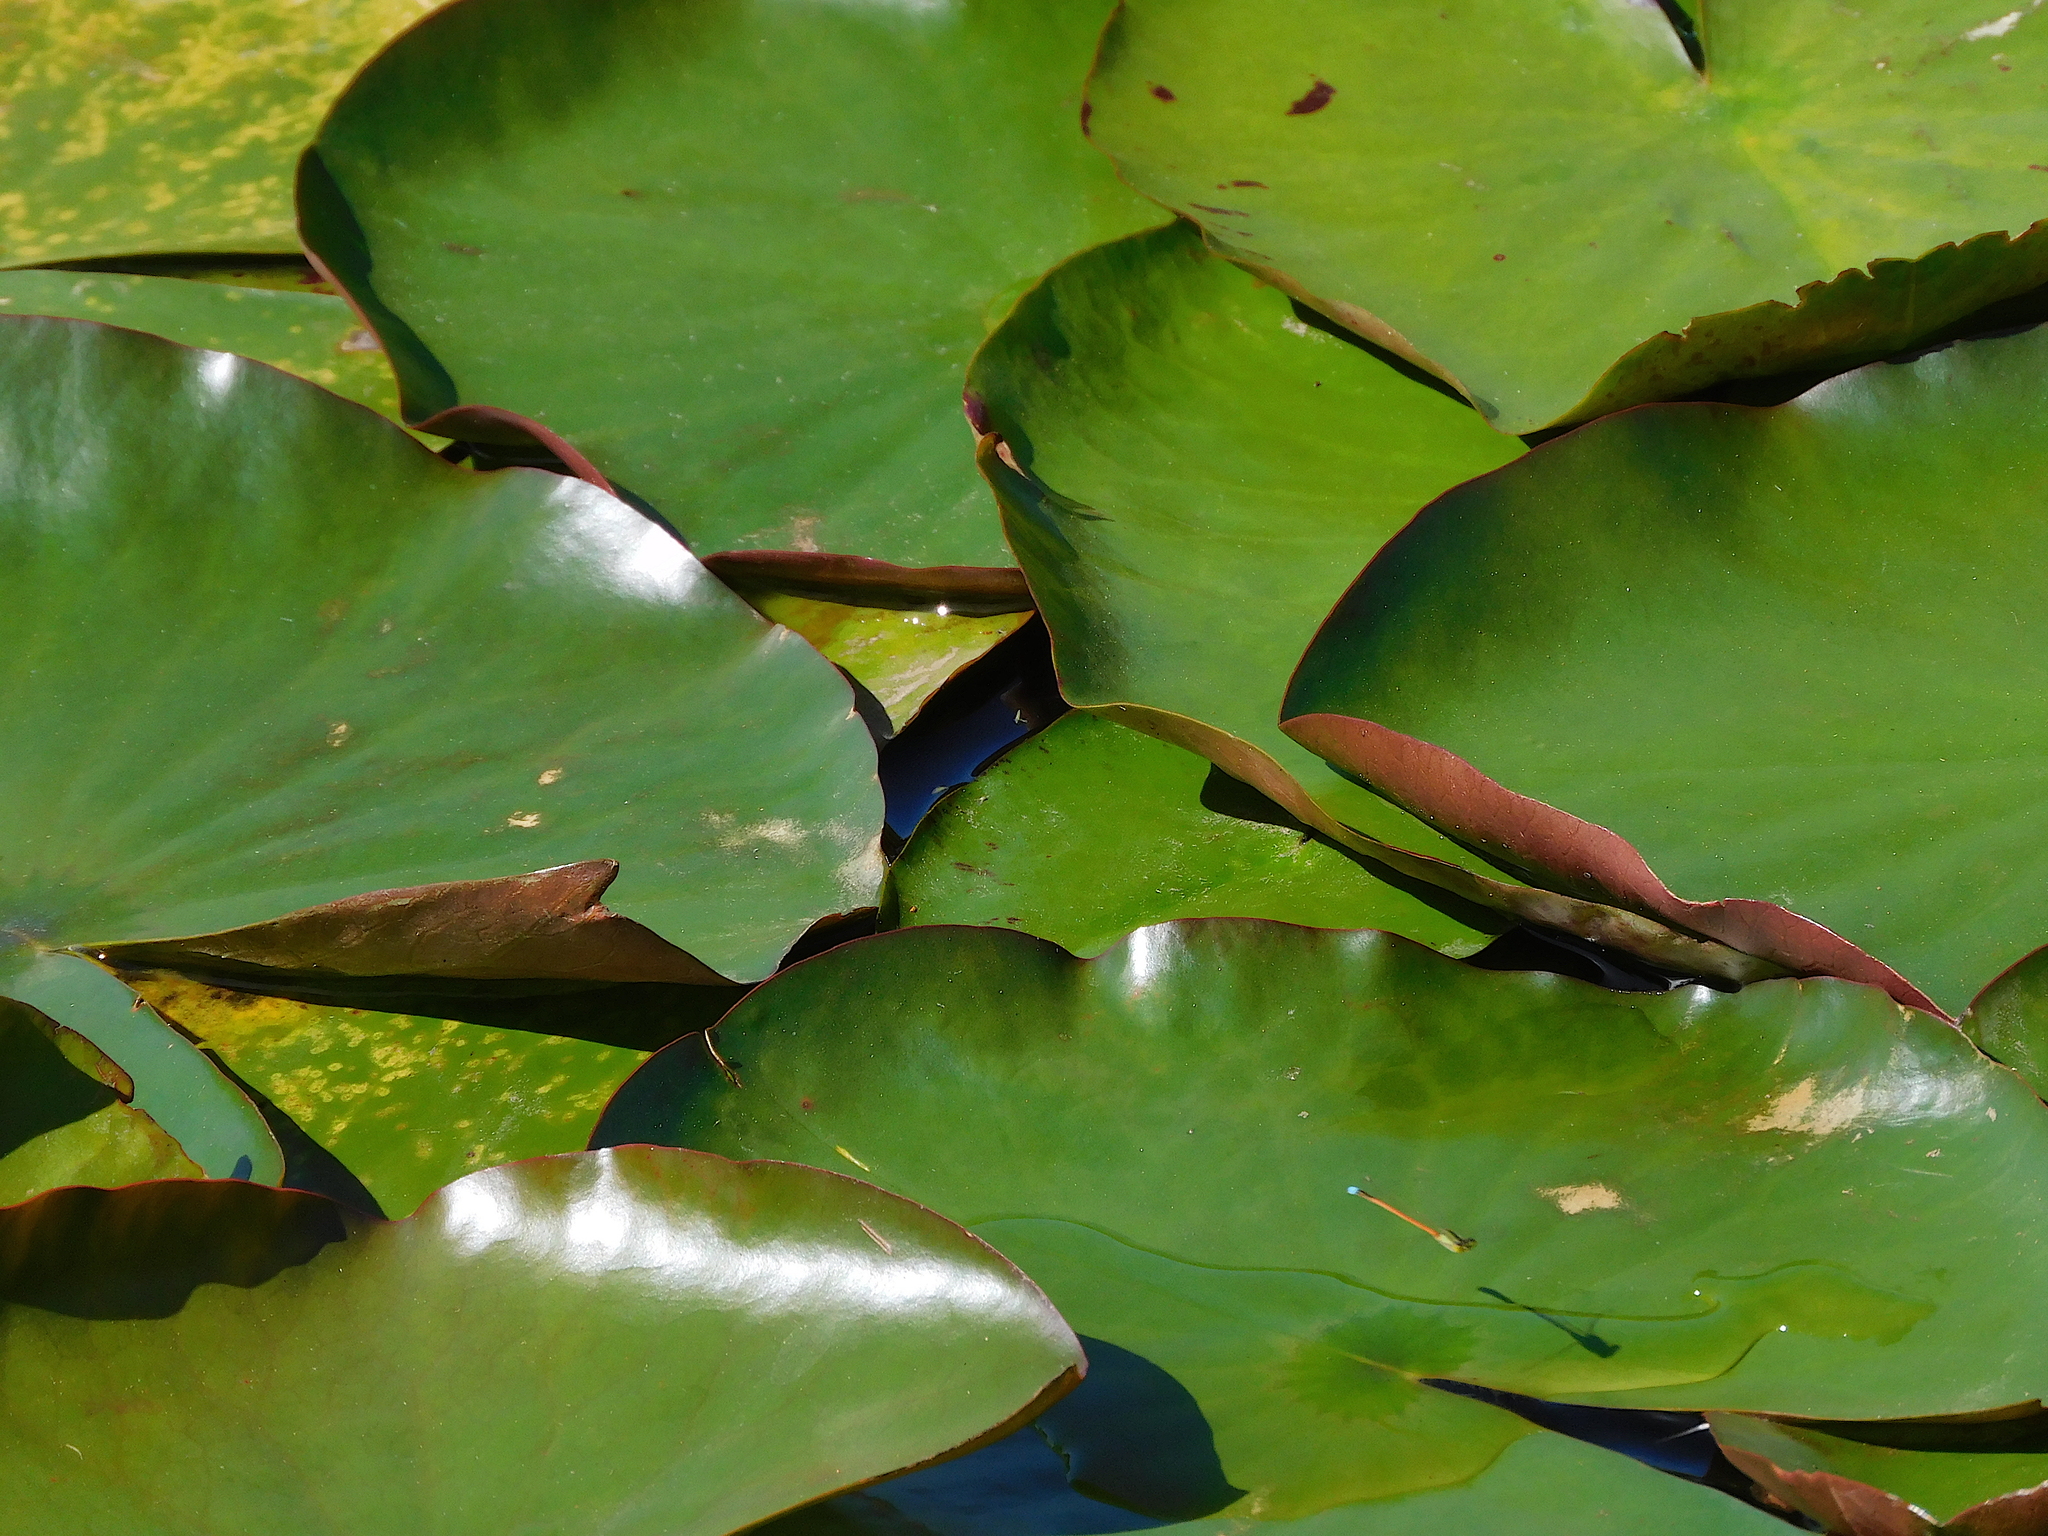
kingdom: Animalia
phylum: Arthropoda
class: Insecta
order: Odonata
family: Coenagrionidae
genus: Ischnura
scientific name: Ischnura aurora
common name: Gossamer damselfly
